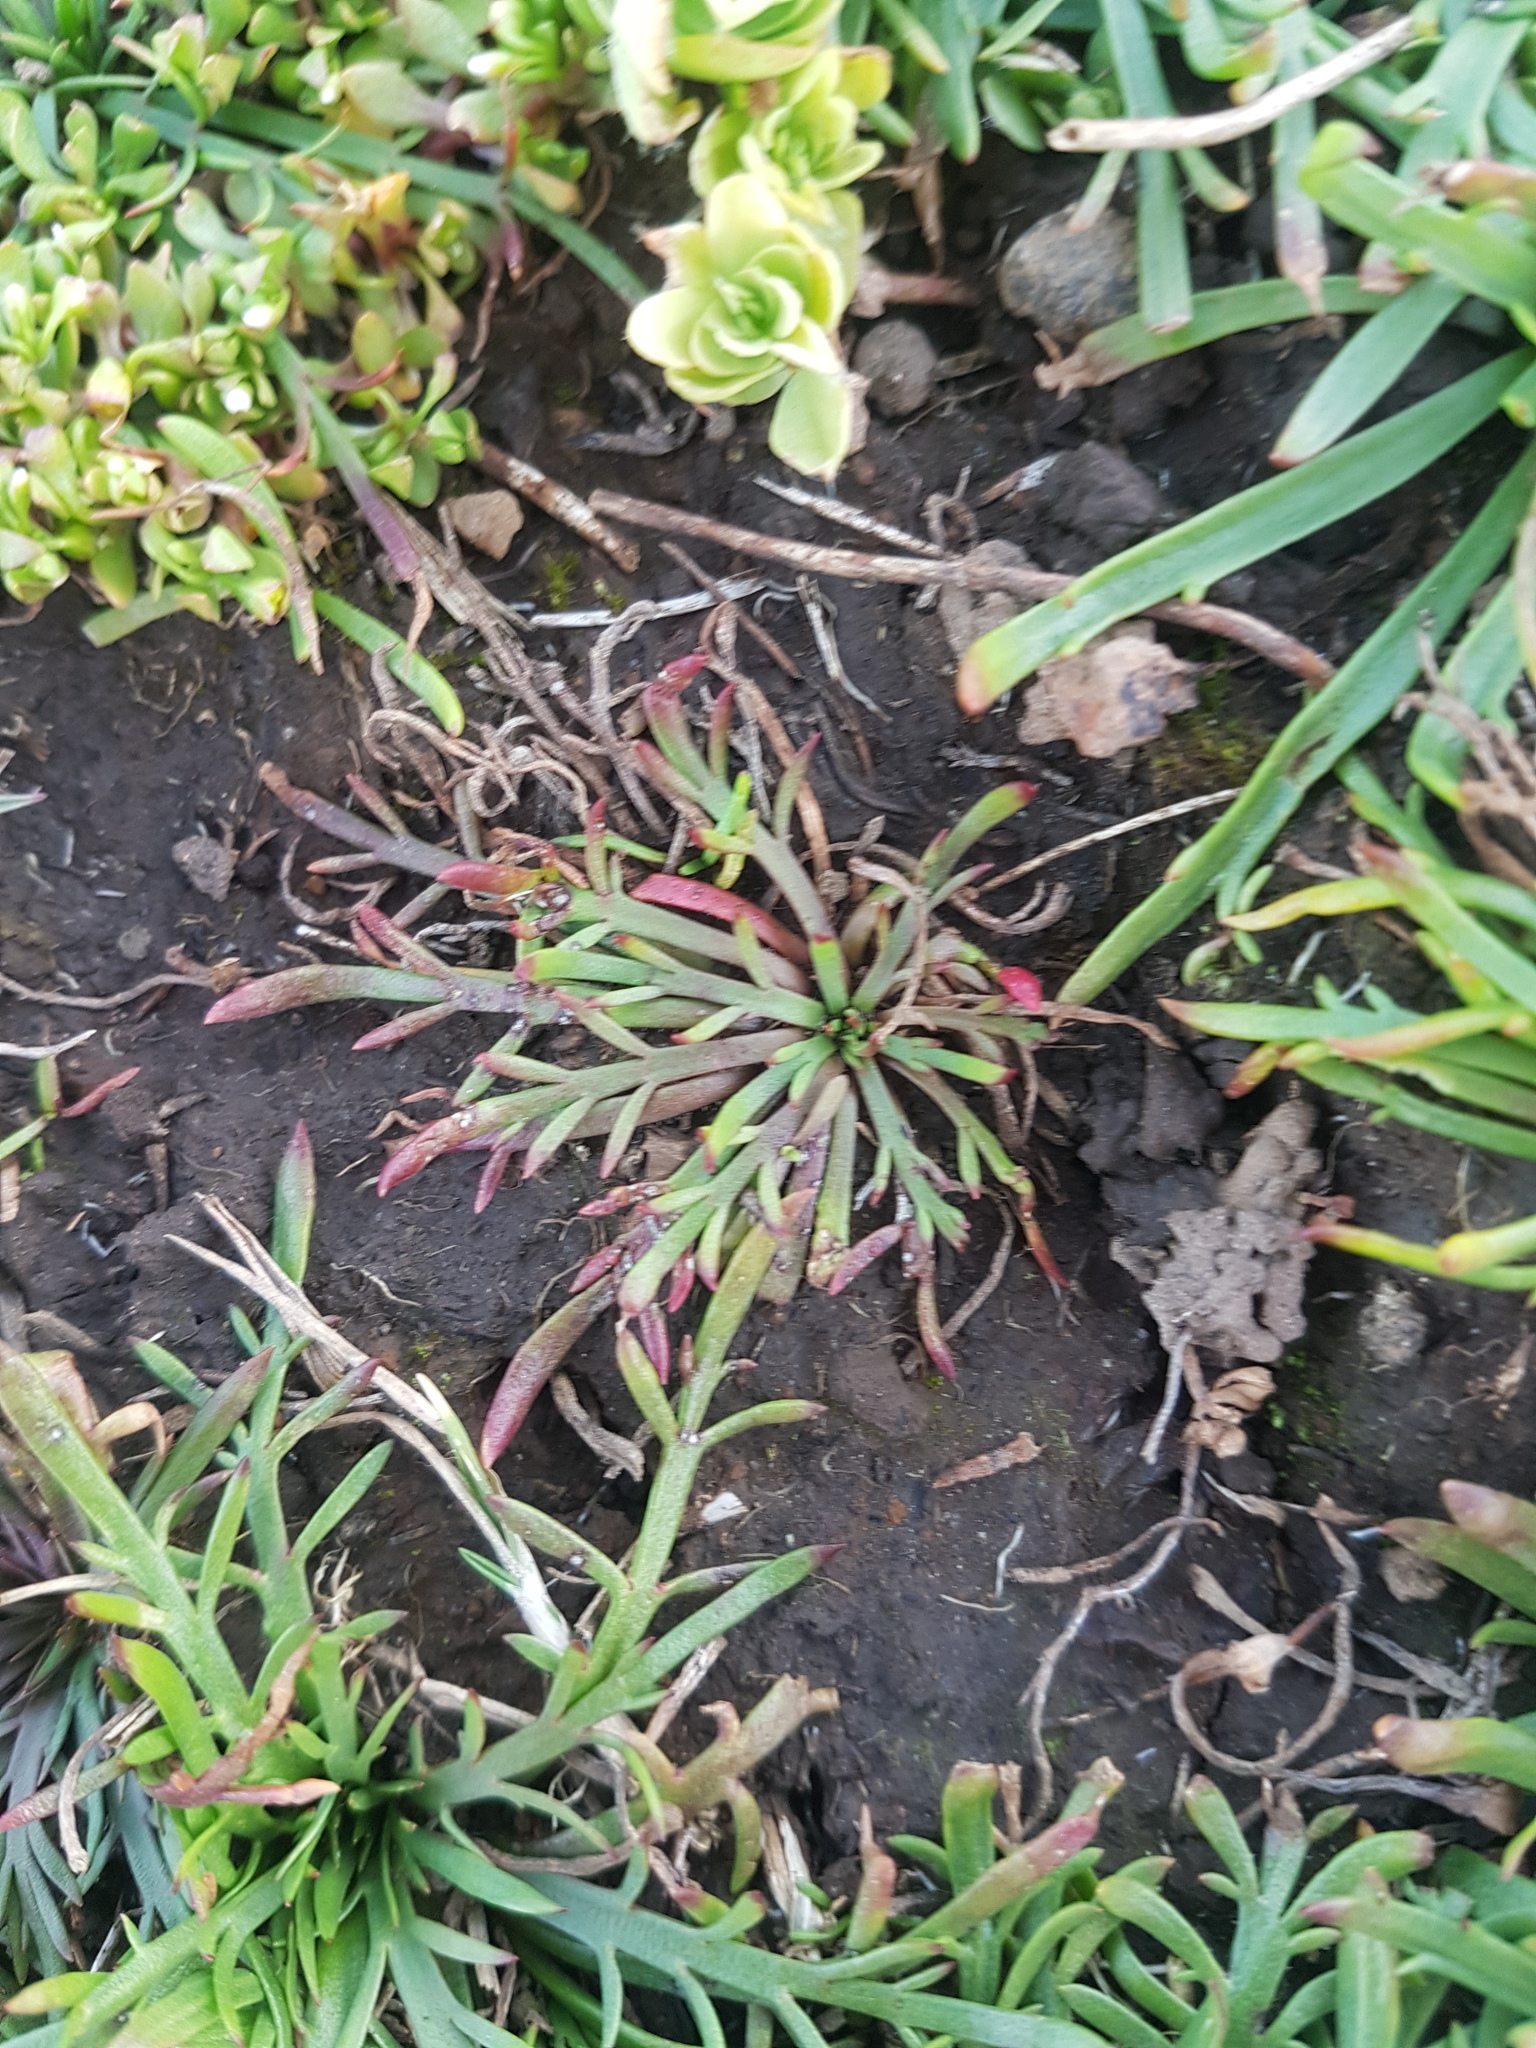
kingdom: Plantae
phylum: Tracheophyta
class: Magnoliopsida
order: Lamiales
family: Plantaginaceae
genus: Plantago
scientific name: Plantago coronopus
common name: Buck's-horn plantain
